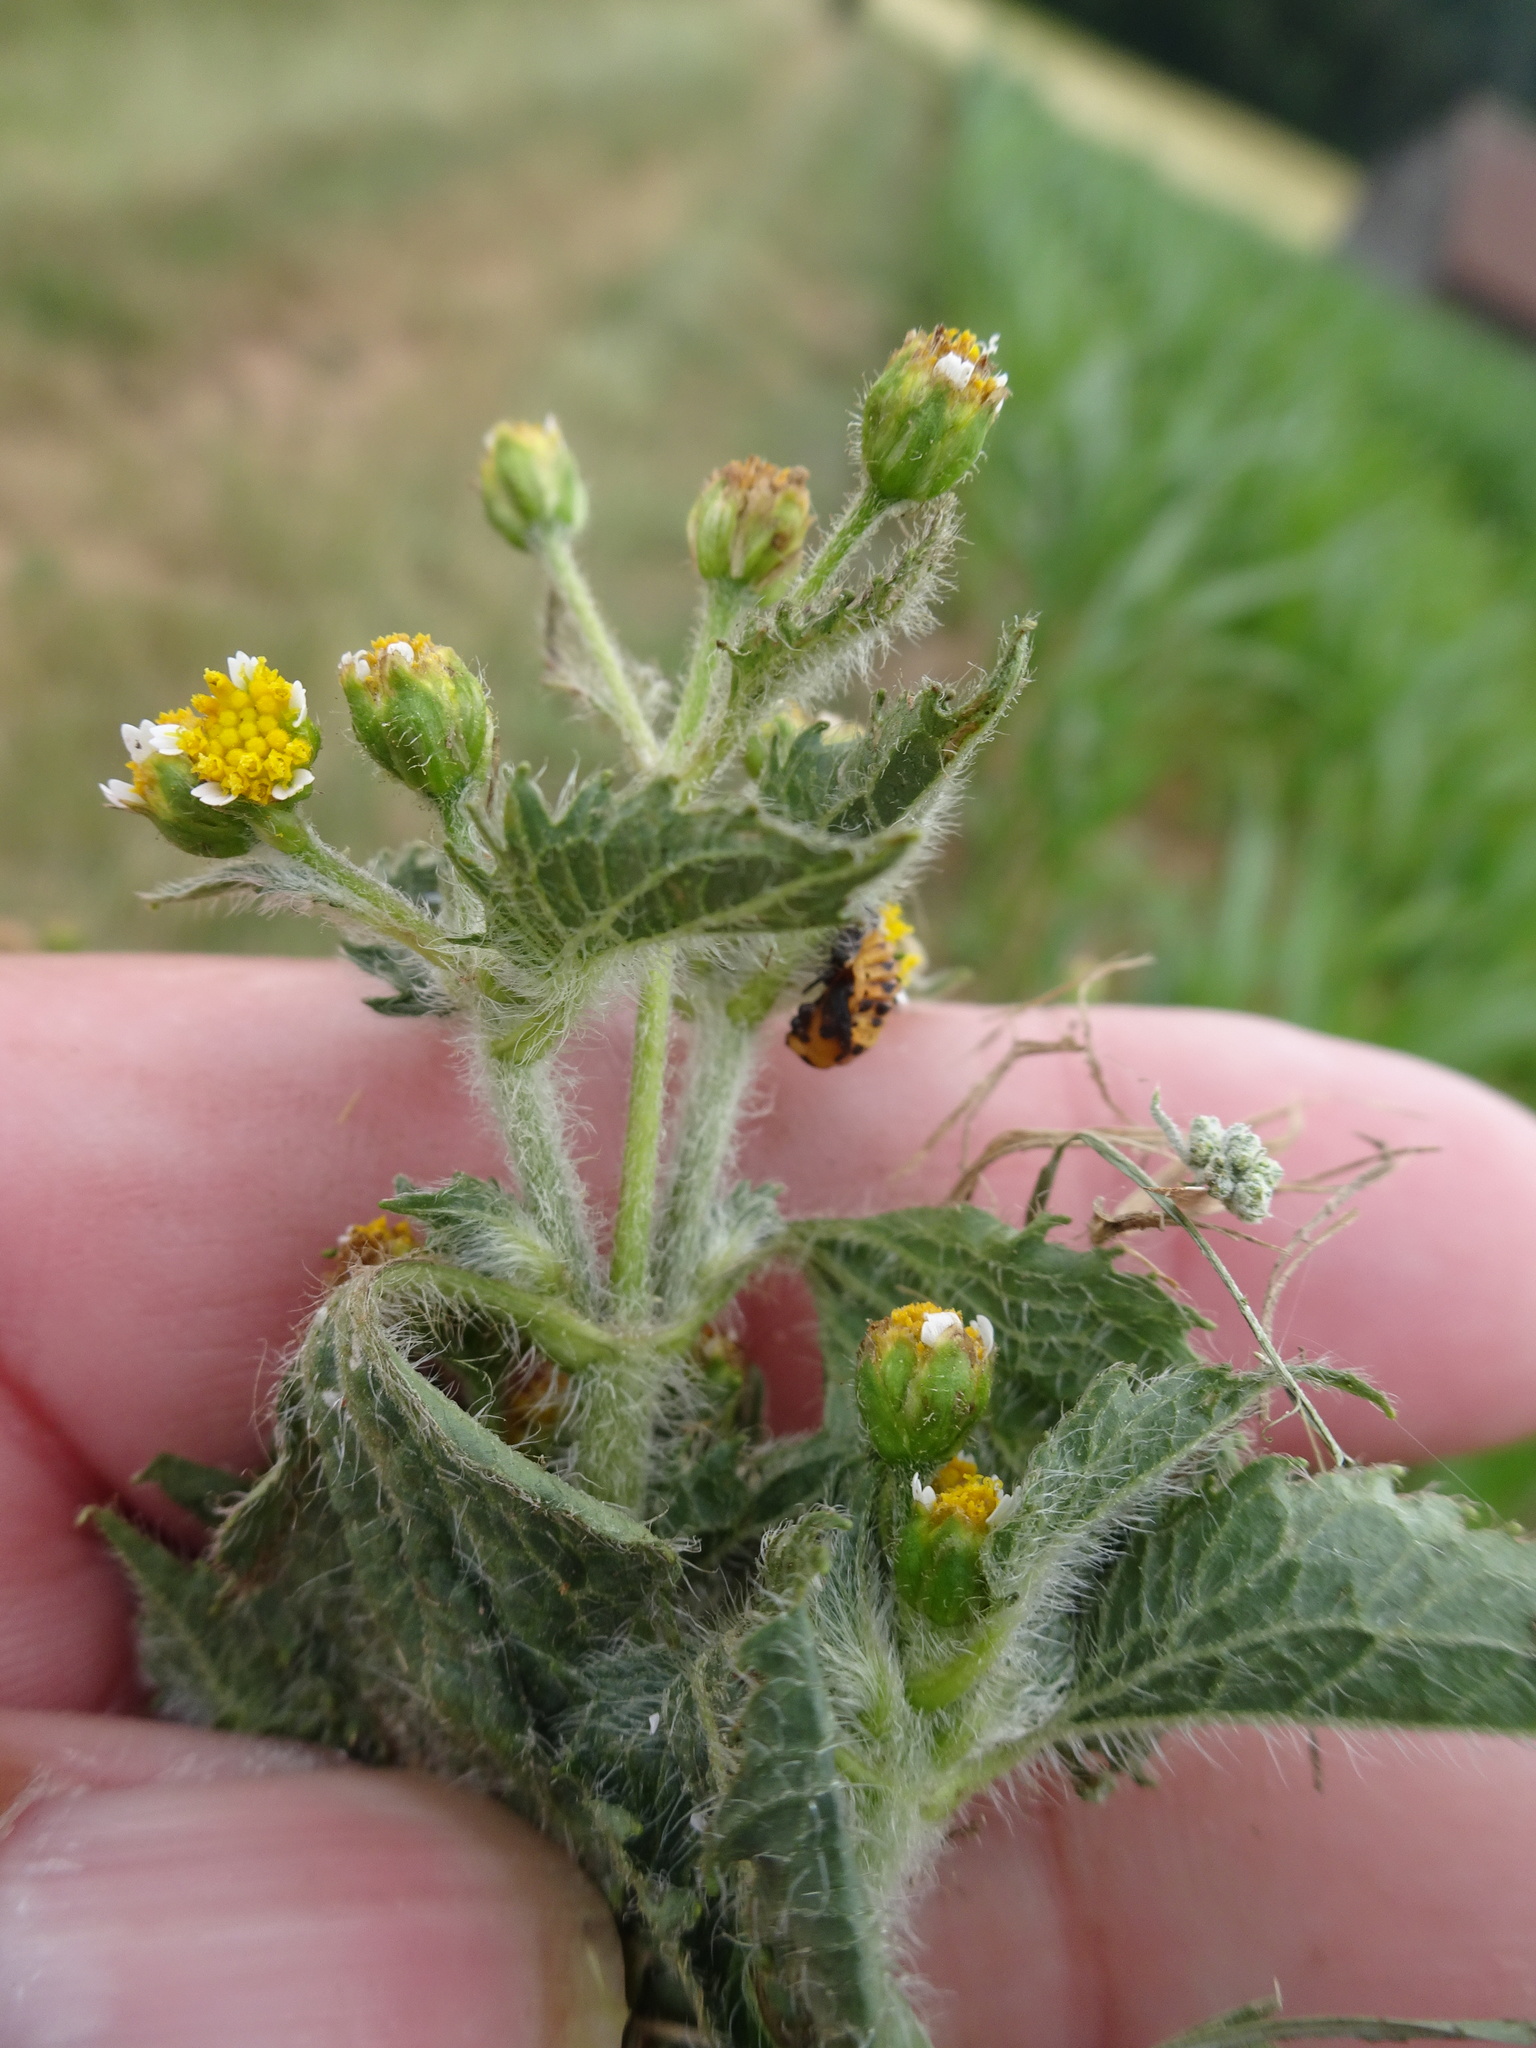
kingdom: Plantae
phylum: Tracheophyta
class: Magnoliopsida
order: Asterales
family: Asteraceae
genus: Galinsoga
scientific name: Galinsoga quadriradiata
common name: Shaggy soldier
